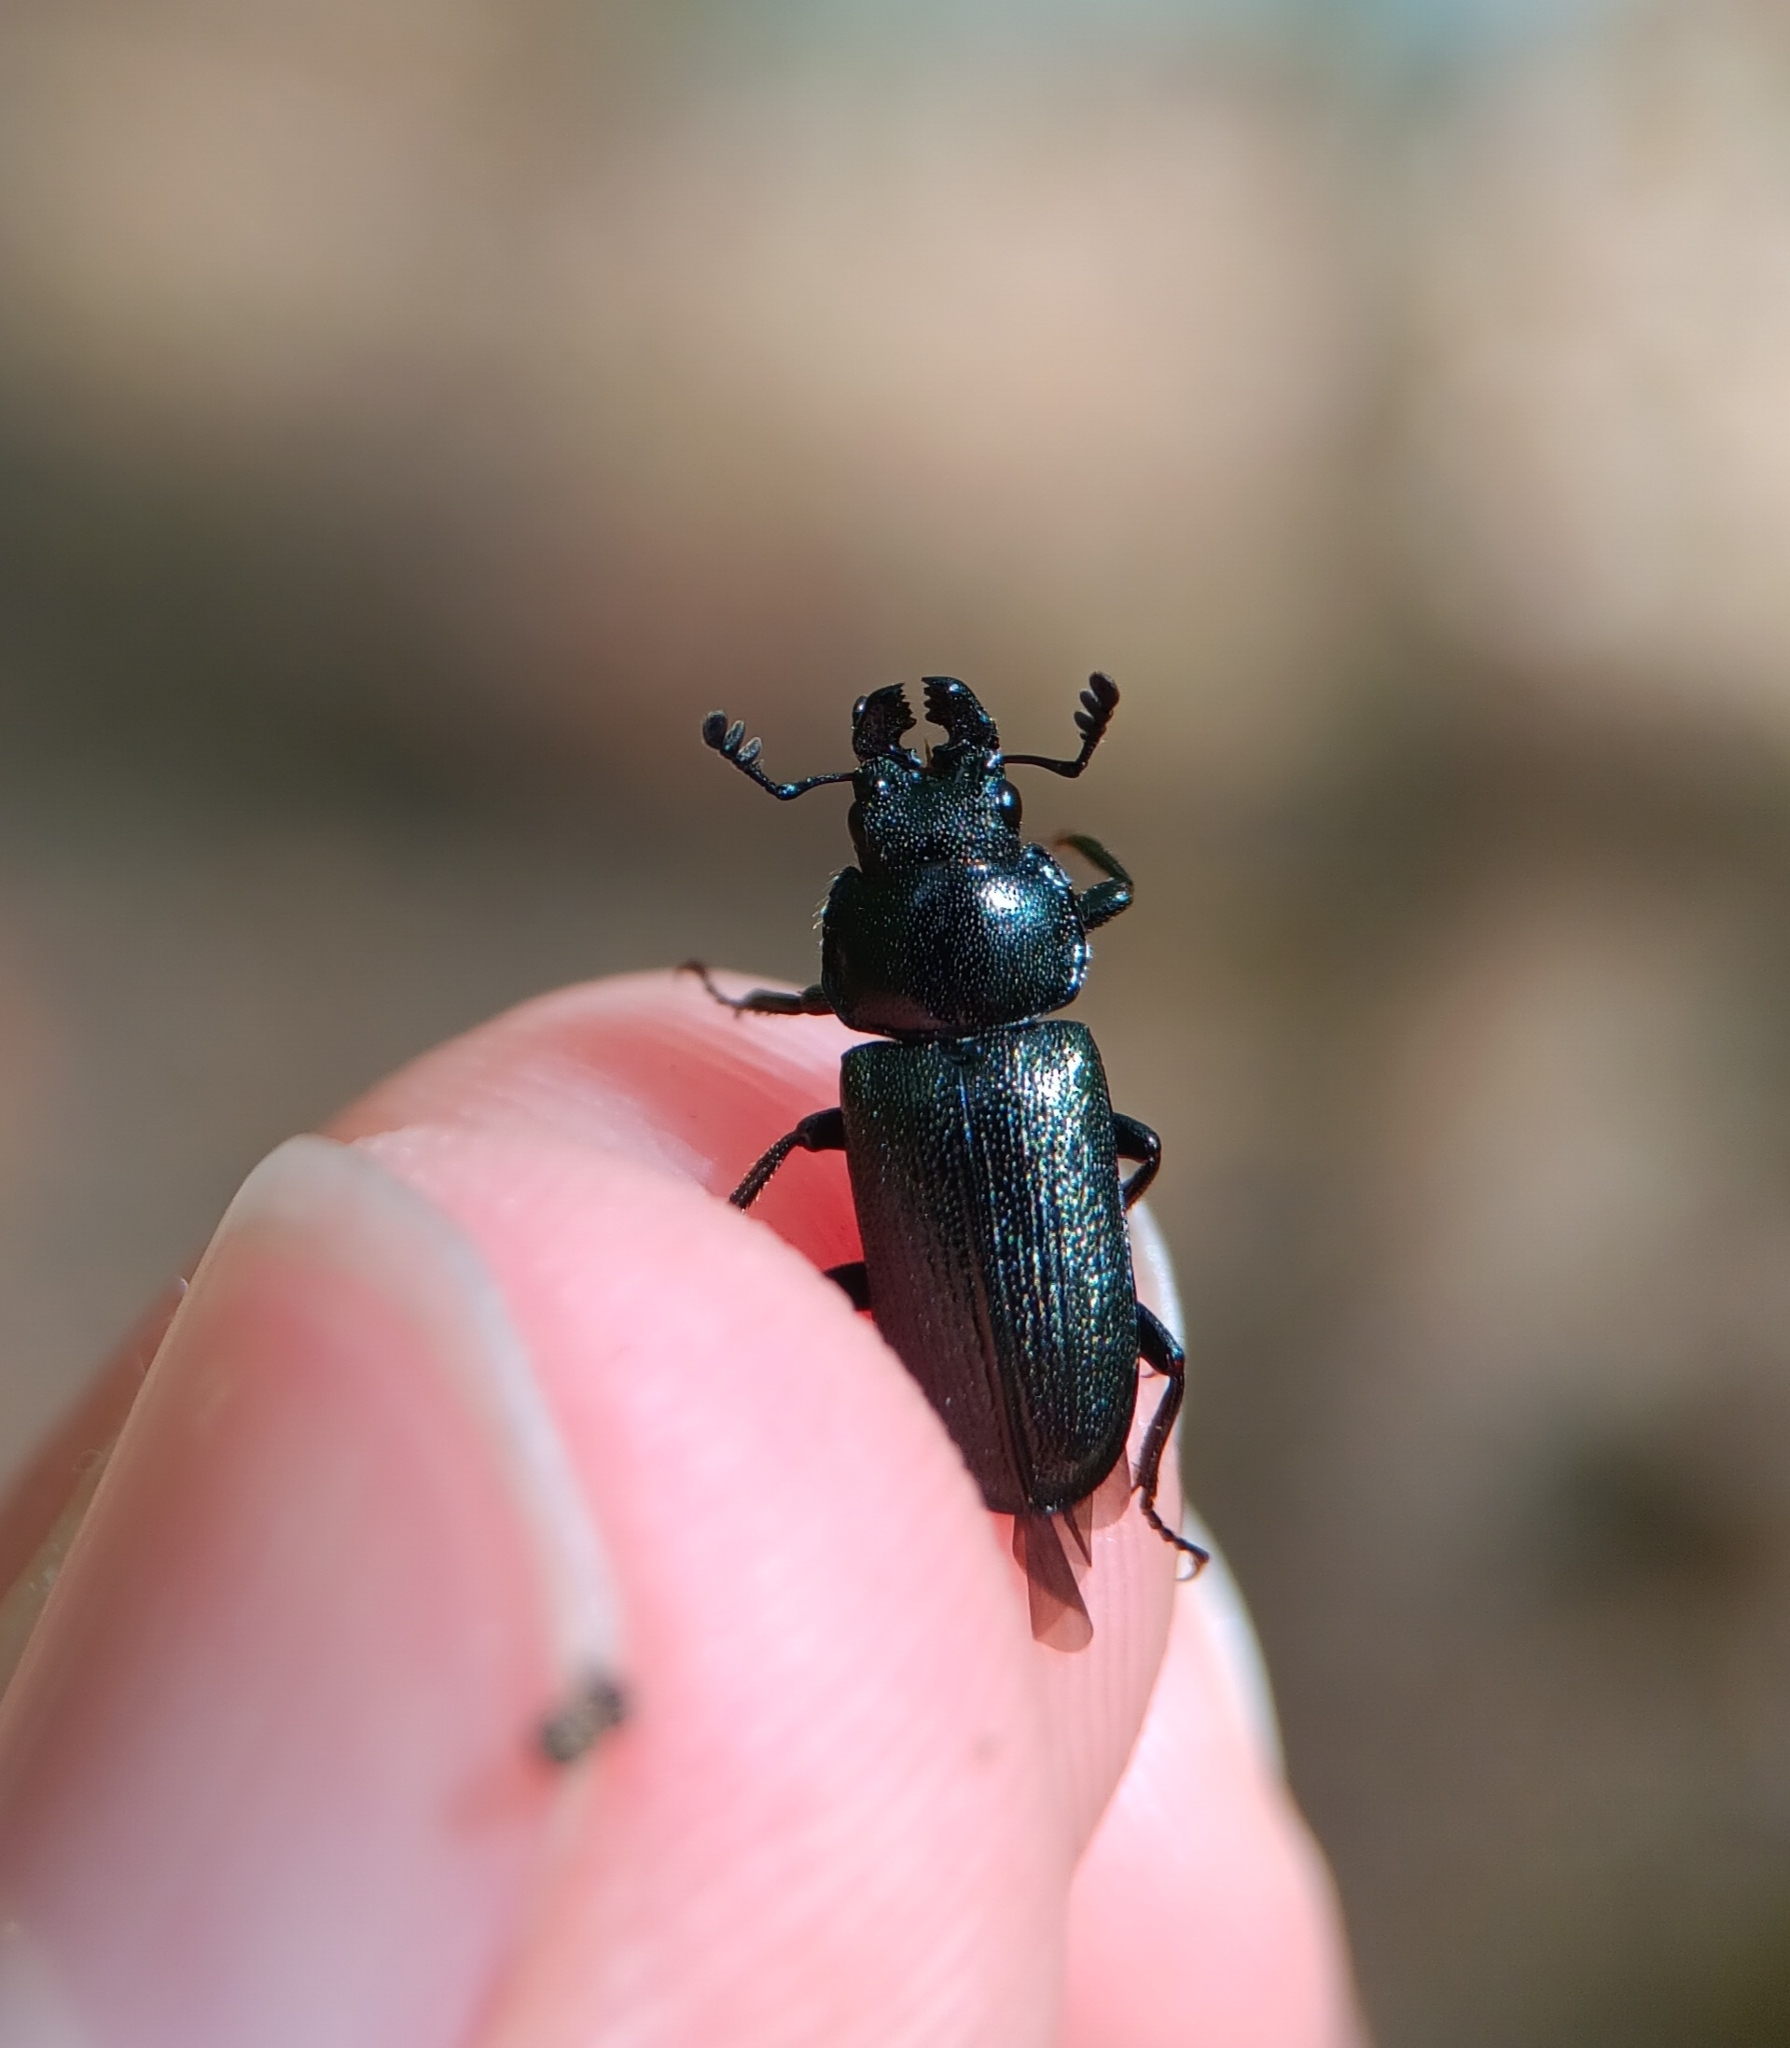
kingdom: Animalia
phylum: Arthropoda
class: Insecta
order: Coleoptera
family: Lucanidae
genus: Platycerus
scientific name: Platycerus quercus
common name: Oak stag beetle
